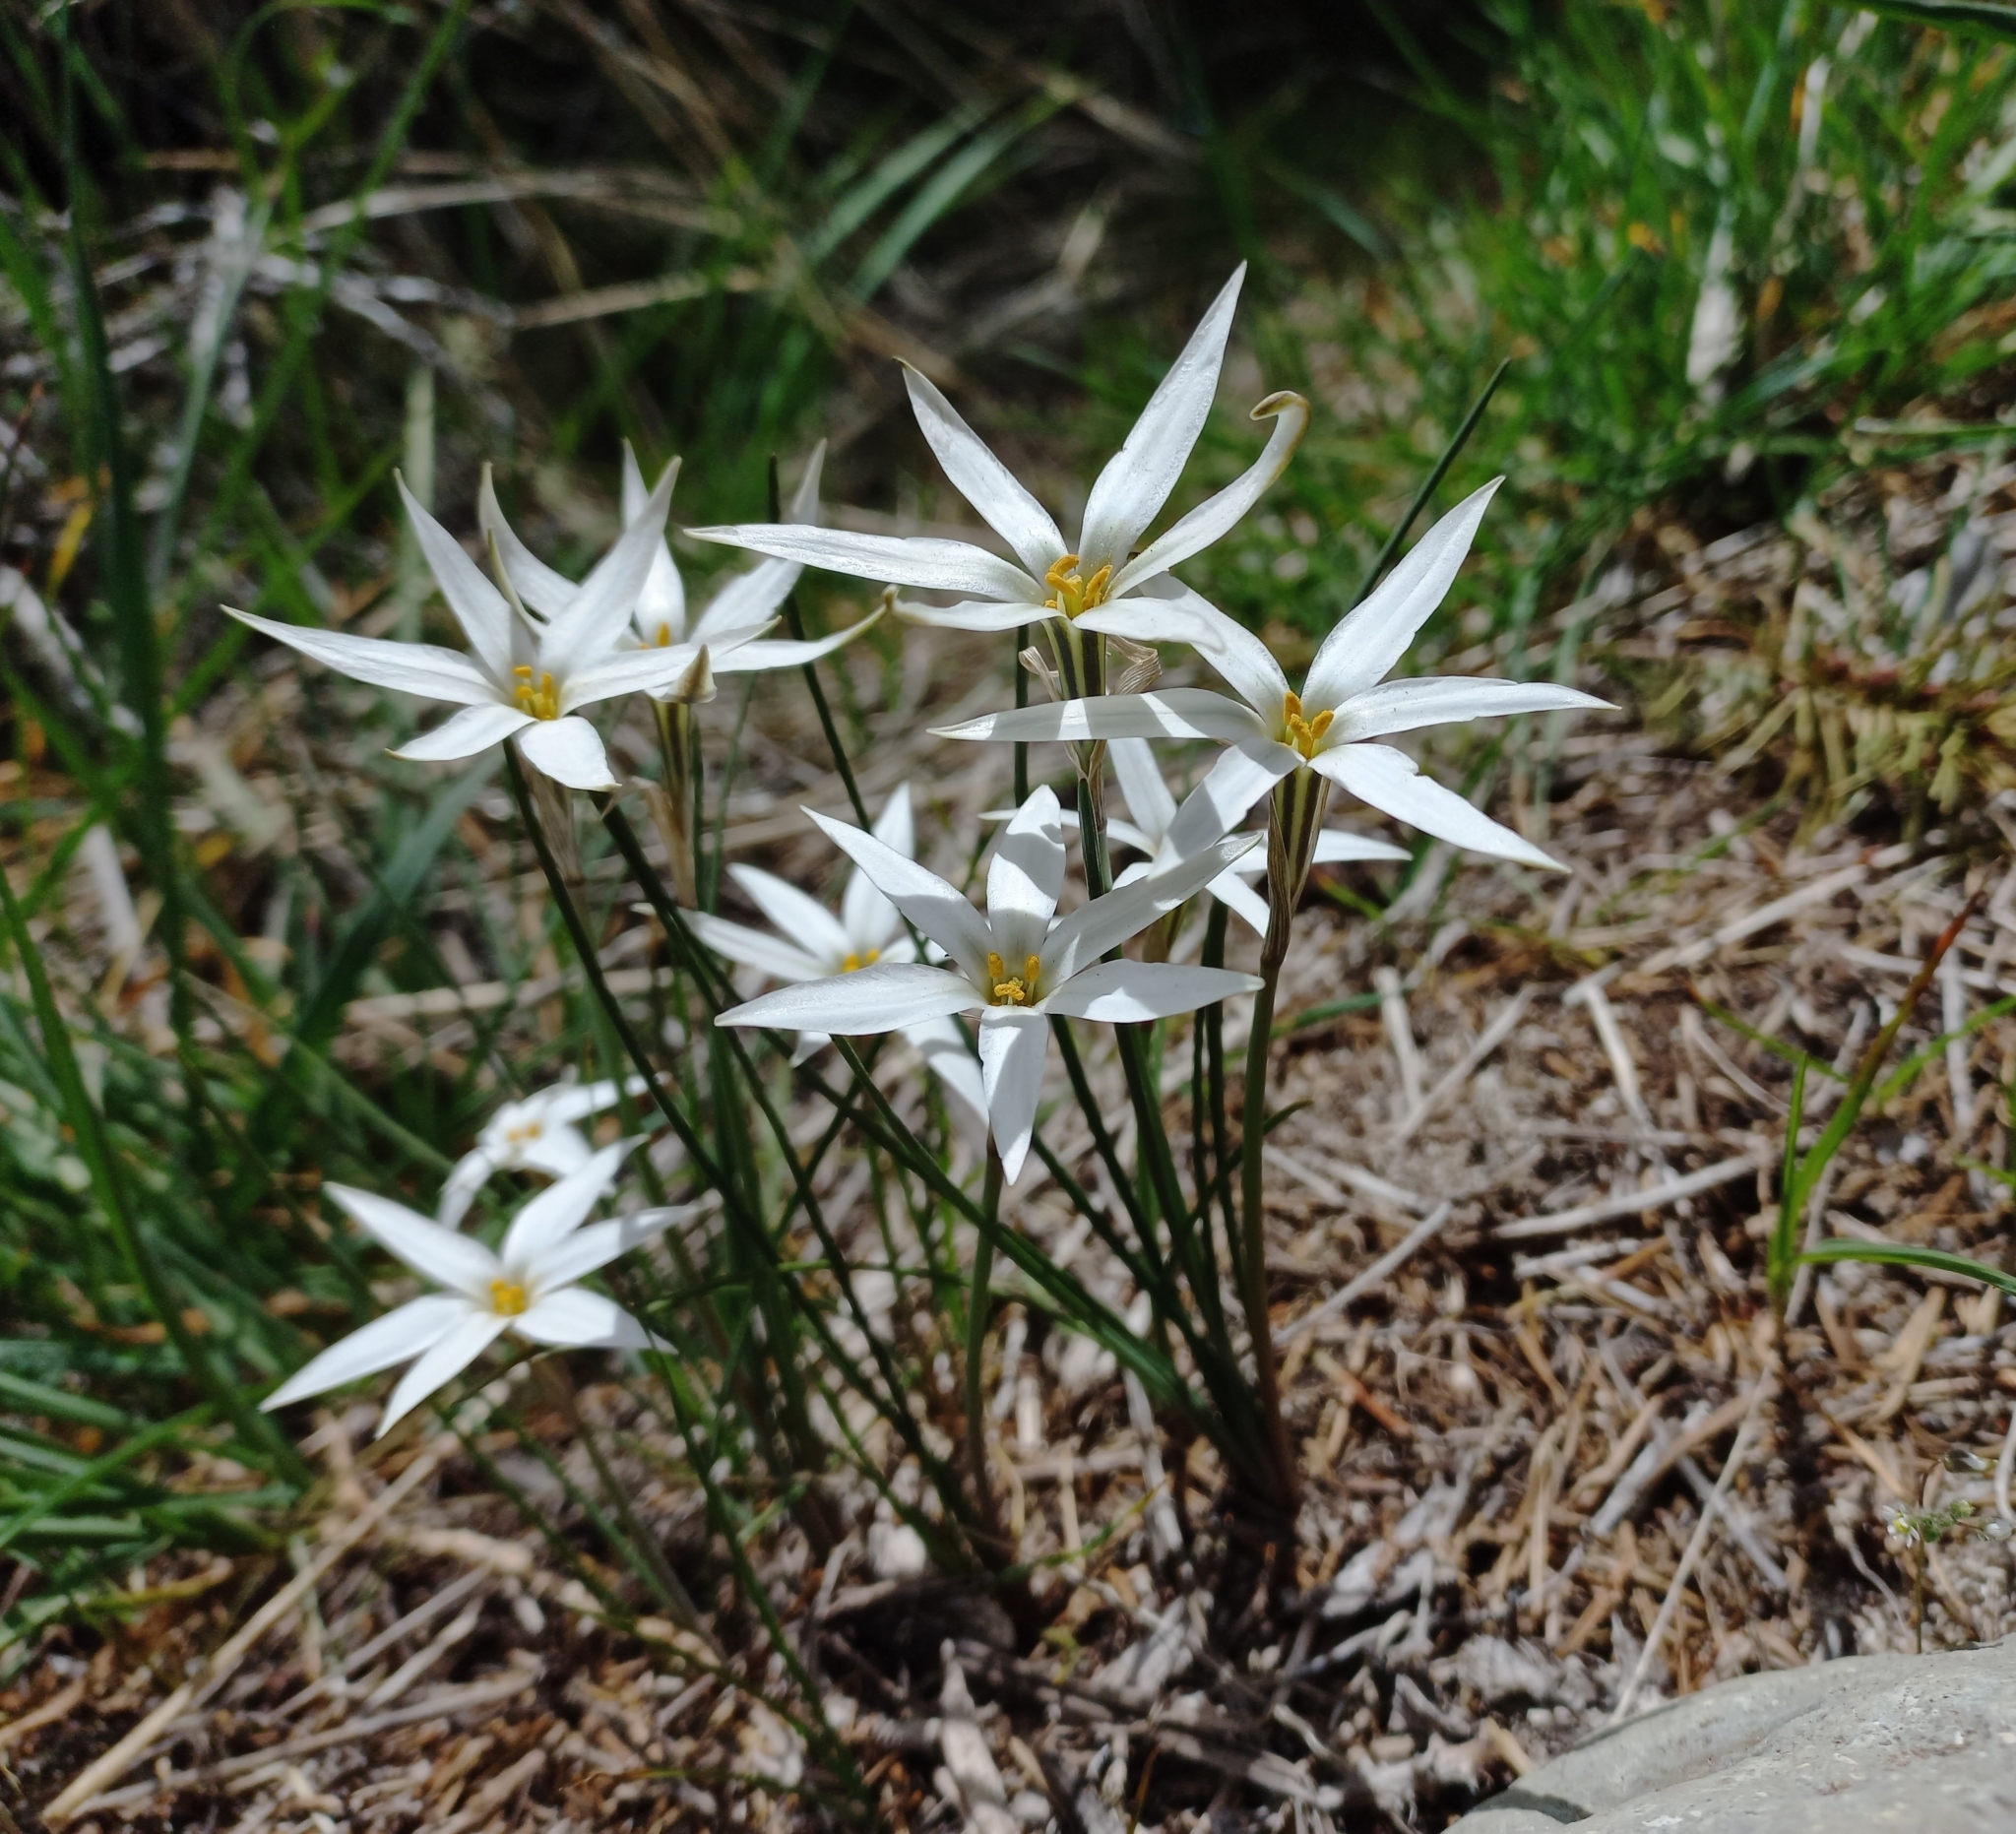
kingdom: Plantae
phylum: Tracheophyta
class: Liliopsida
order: Asparagales
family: Amaryllidaceae
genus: Tristagma
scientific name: Tristagma patagonicum
